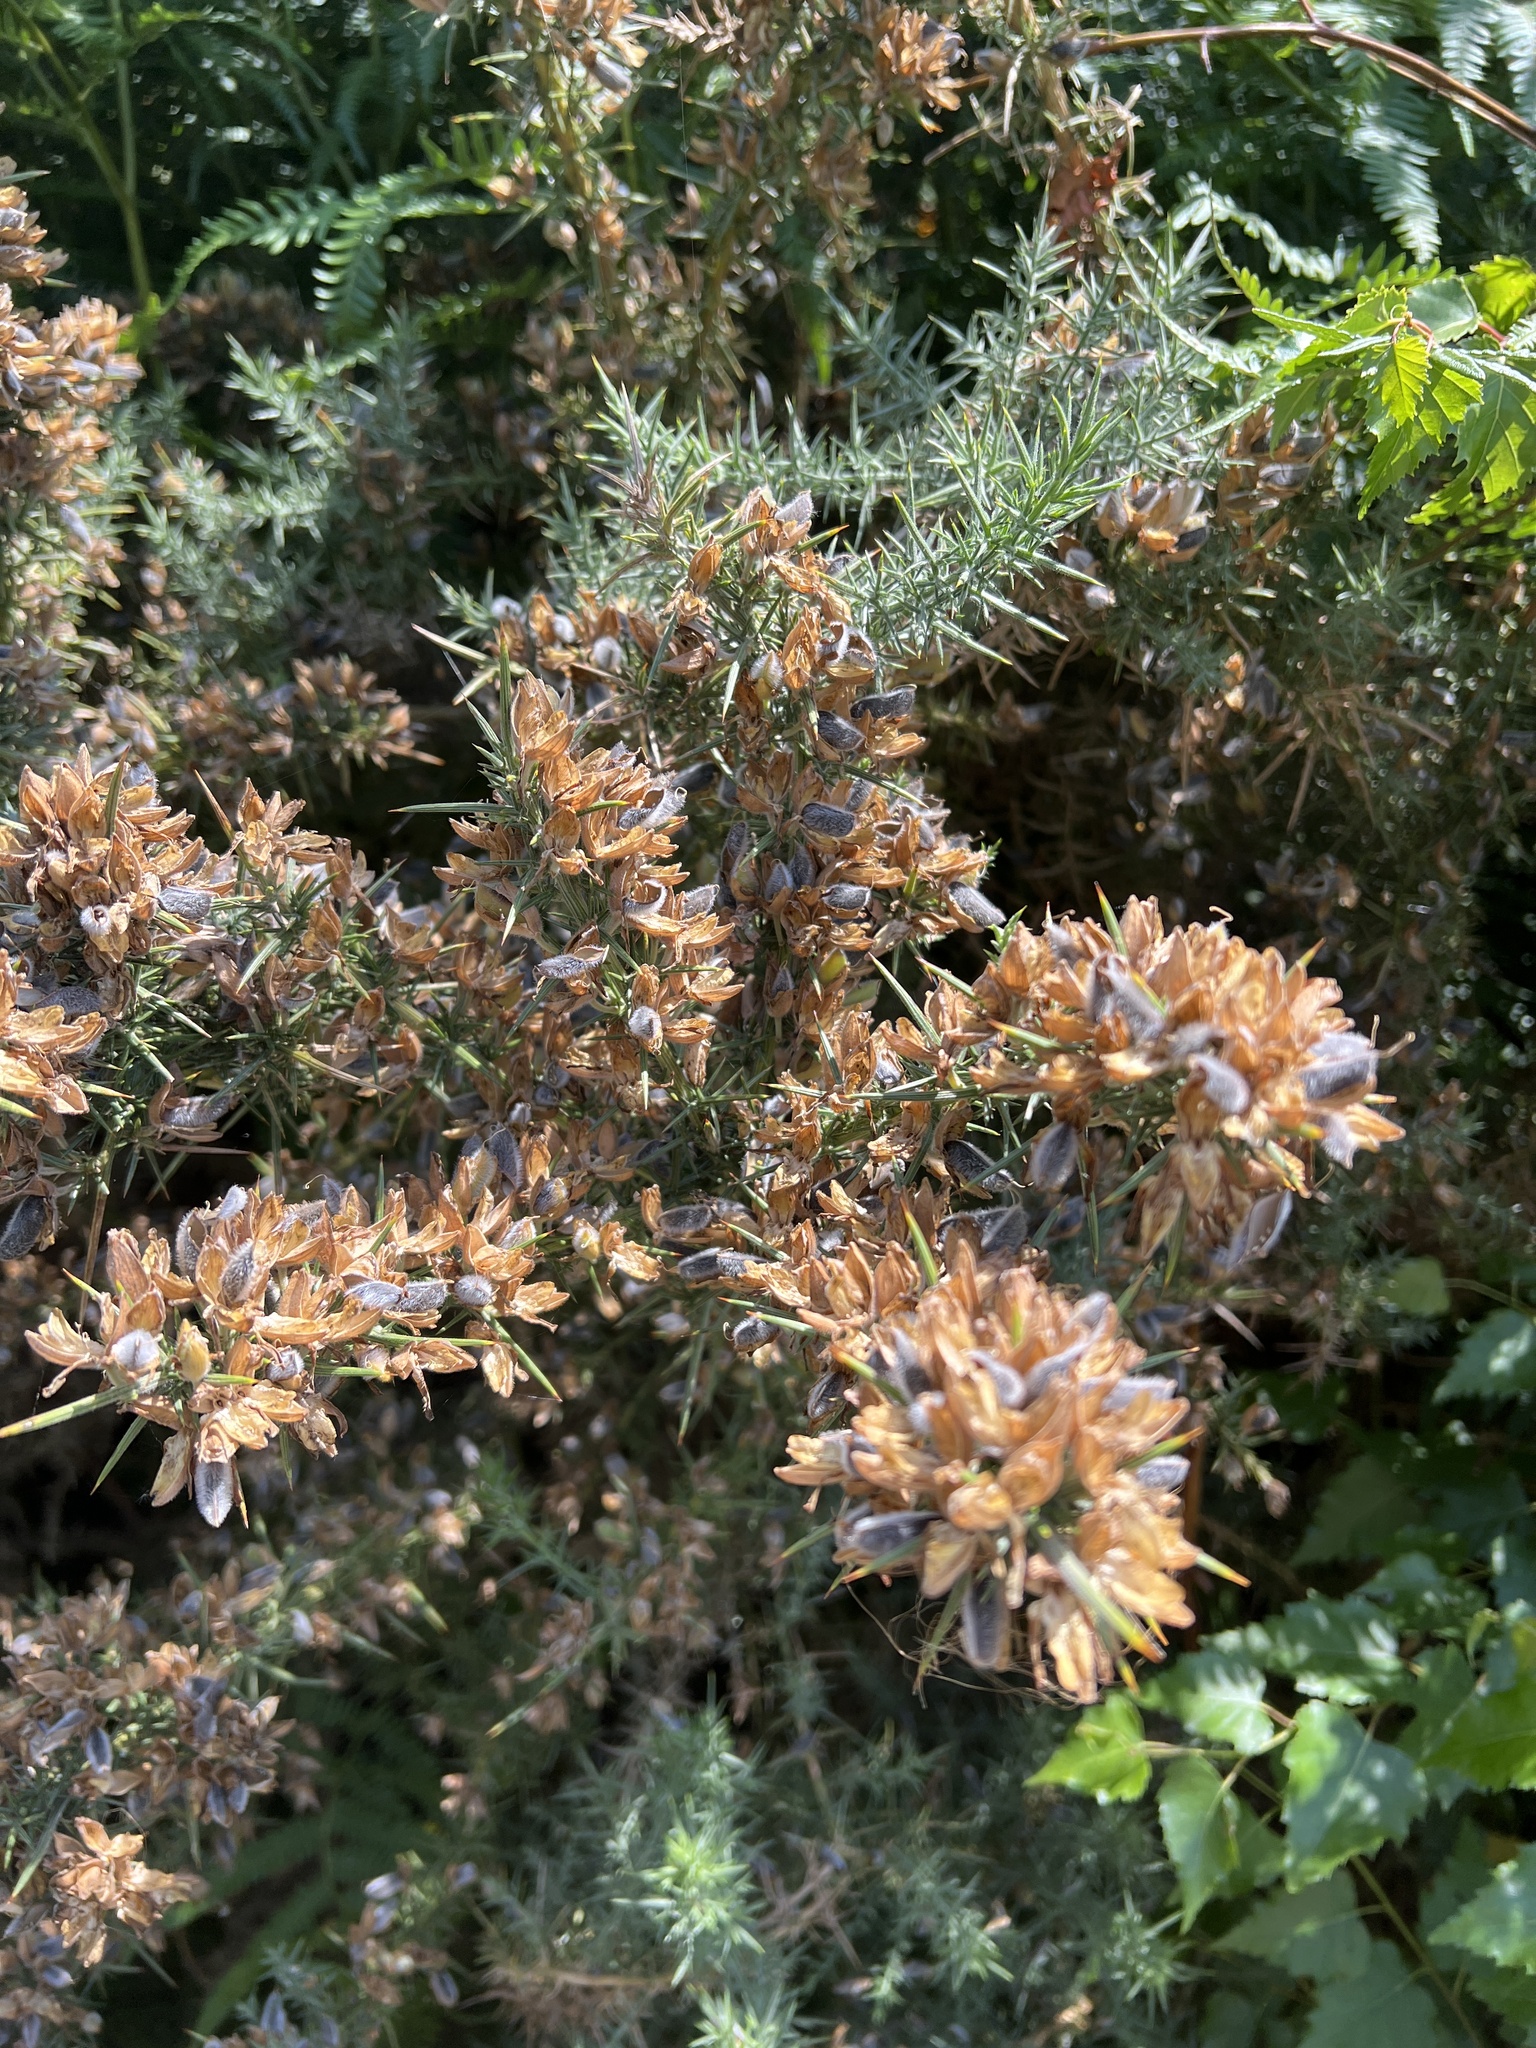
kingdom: Plantae
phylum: Tracheophyta
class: Magnoliopsida
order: Fabales
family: Fabaceae
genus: Ulex
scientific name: Ulex europaeus
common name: Common gorse
